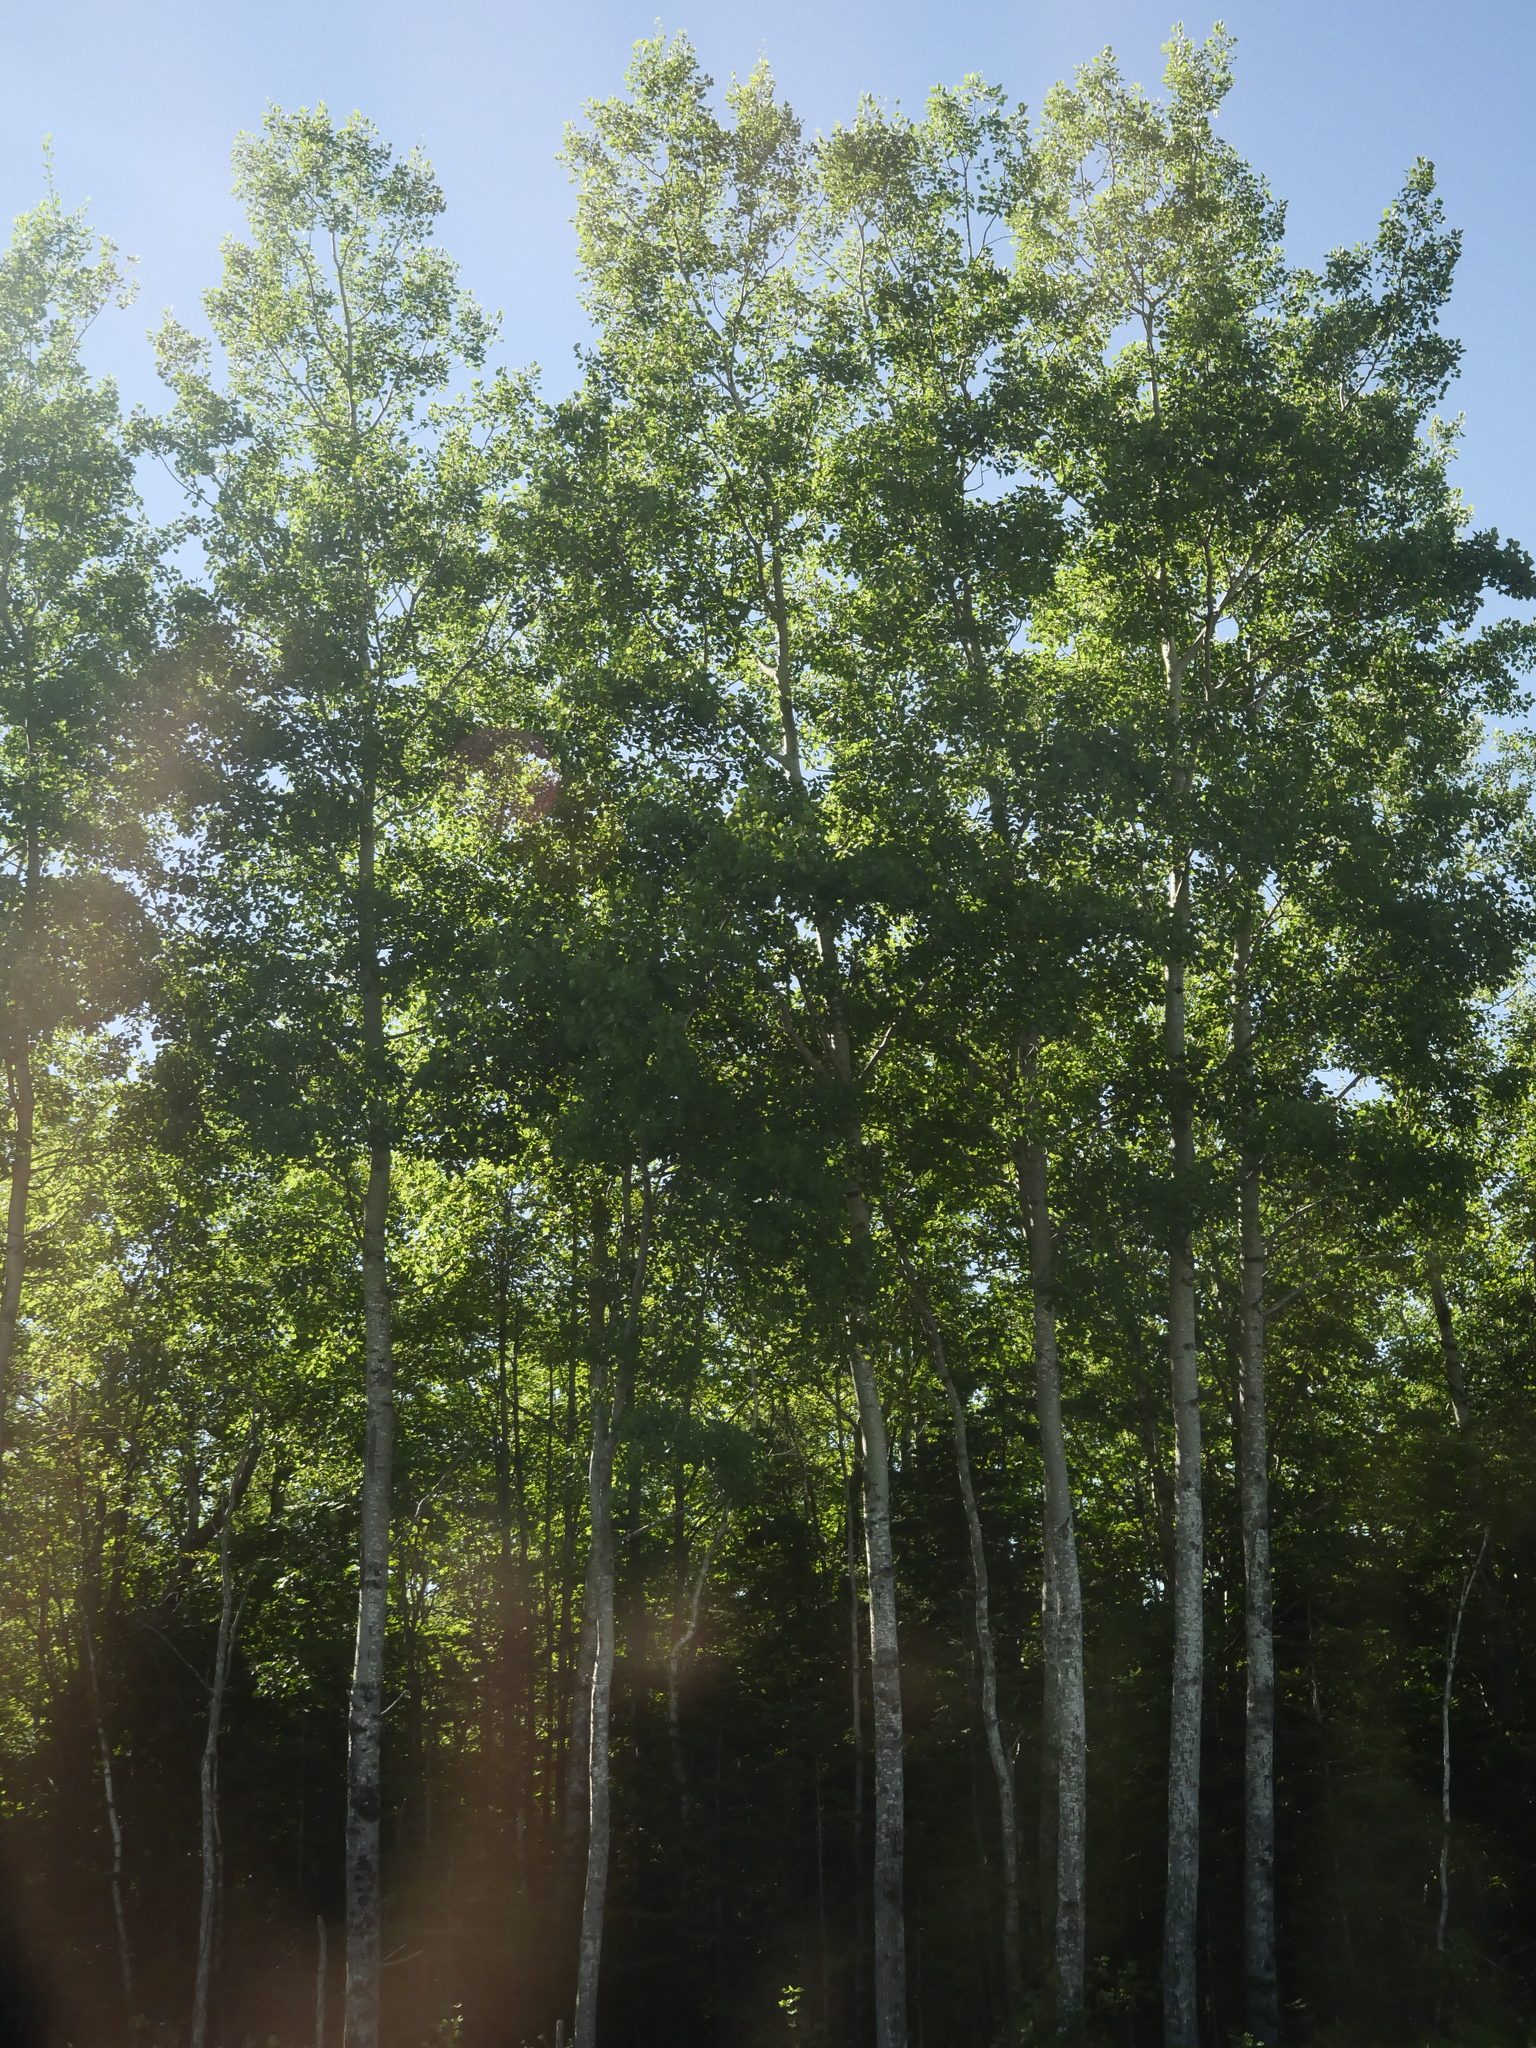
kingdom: Plantae
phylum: Tracheophyta
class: Magnoliopsida
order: Malpighiales
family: Salicaceae
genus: Populus
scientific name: Populus tremuloides
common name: Quaking aspen
